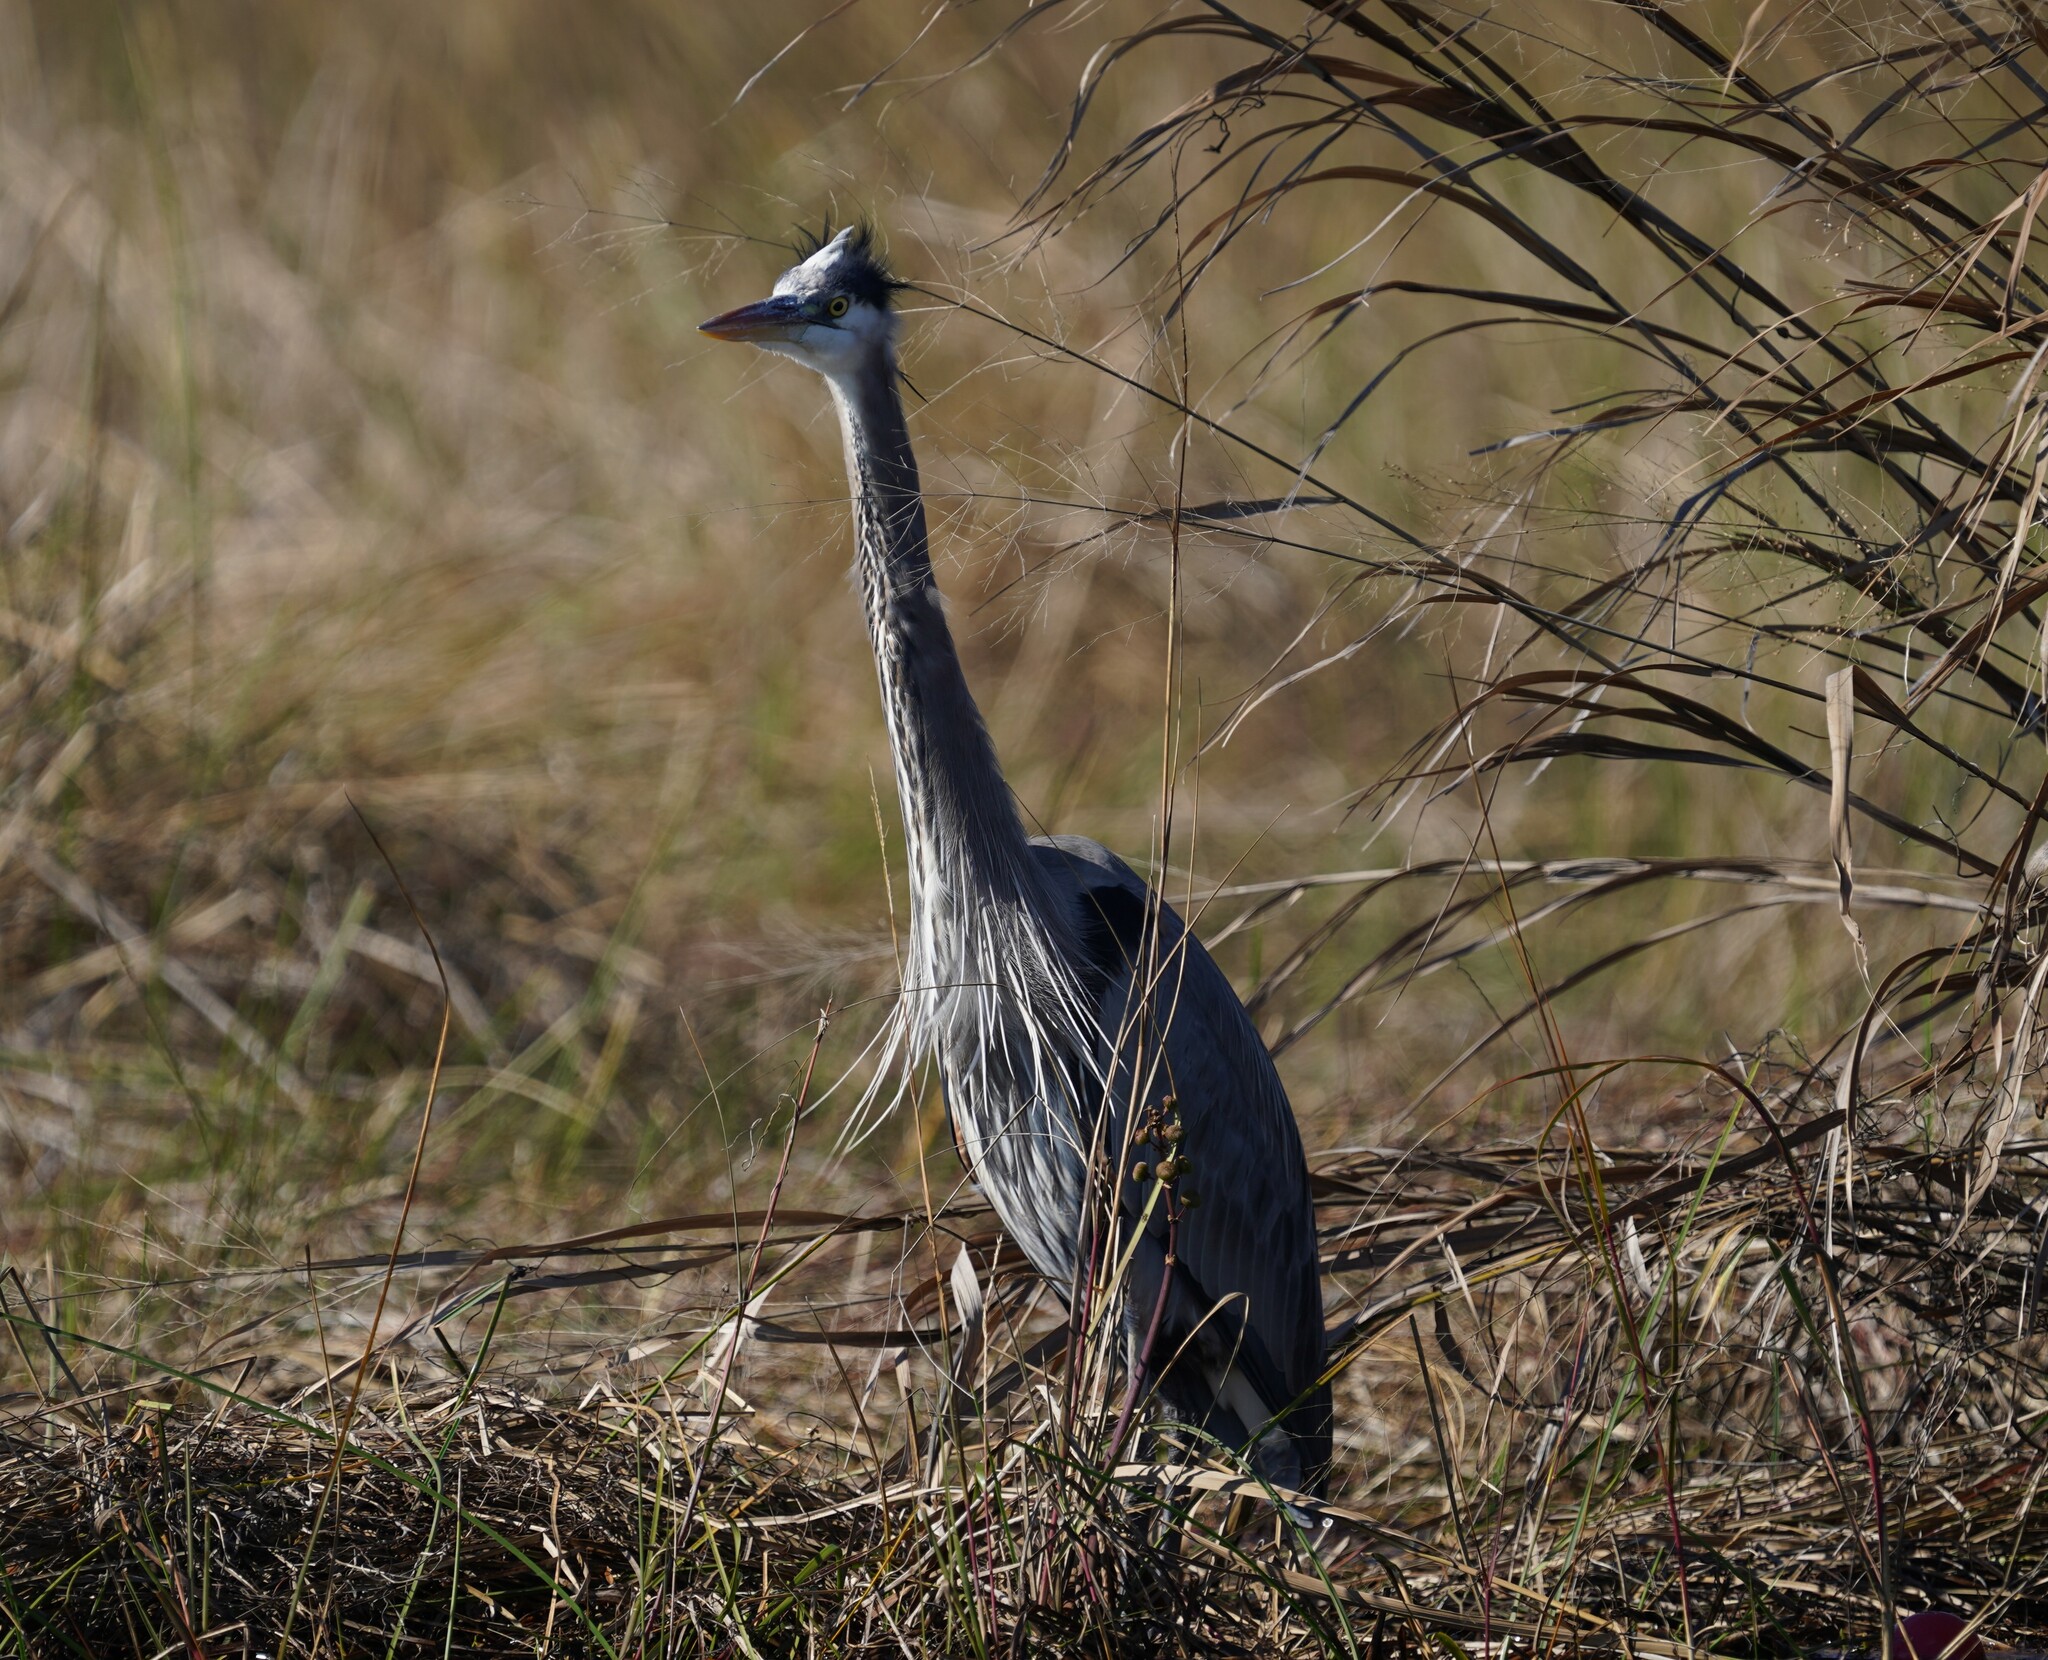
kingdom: Animalia
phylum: Chordata
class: Aves
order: Pelecaniformes
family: Ardeidae
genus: Ardea
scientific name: Ardea herodias
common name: Great blue heron
